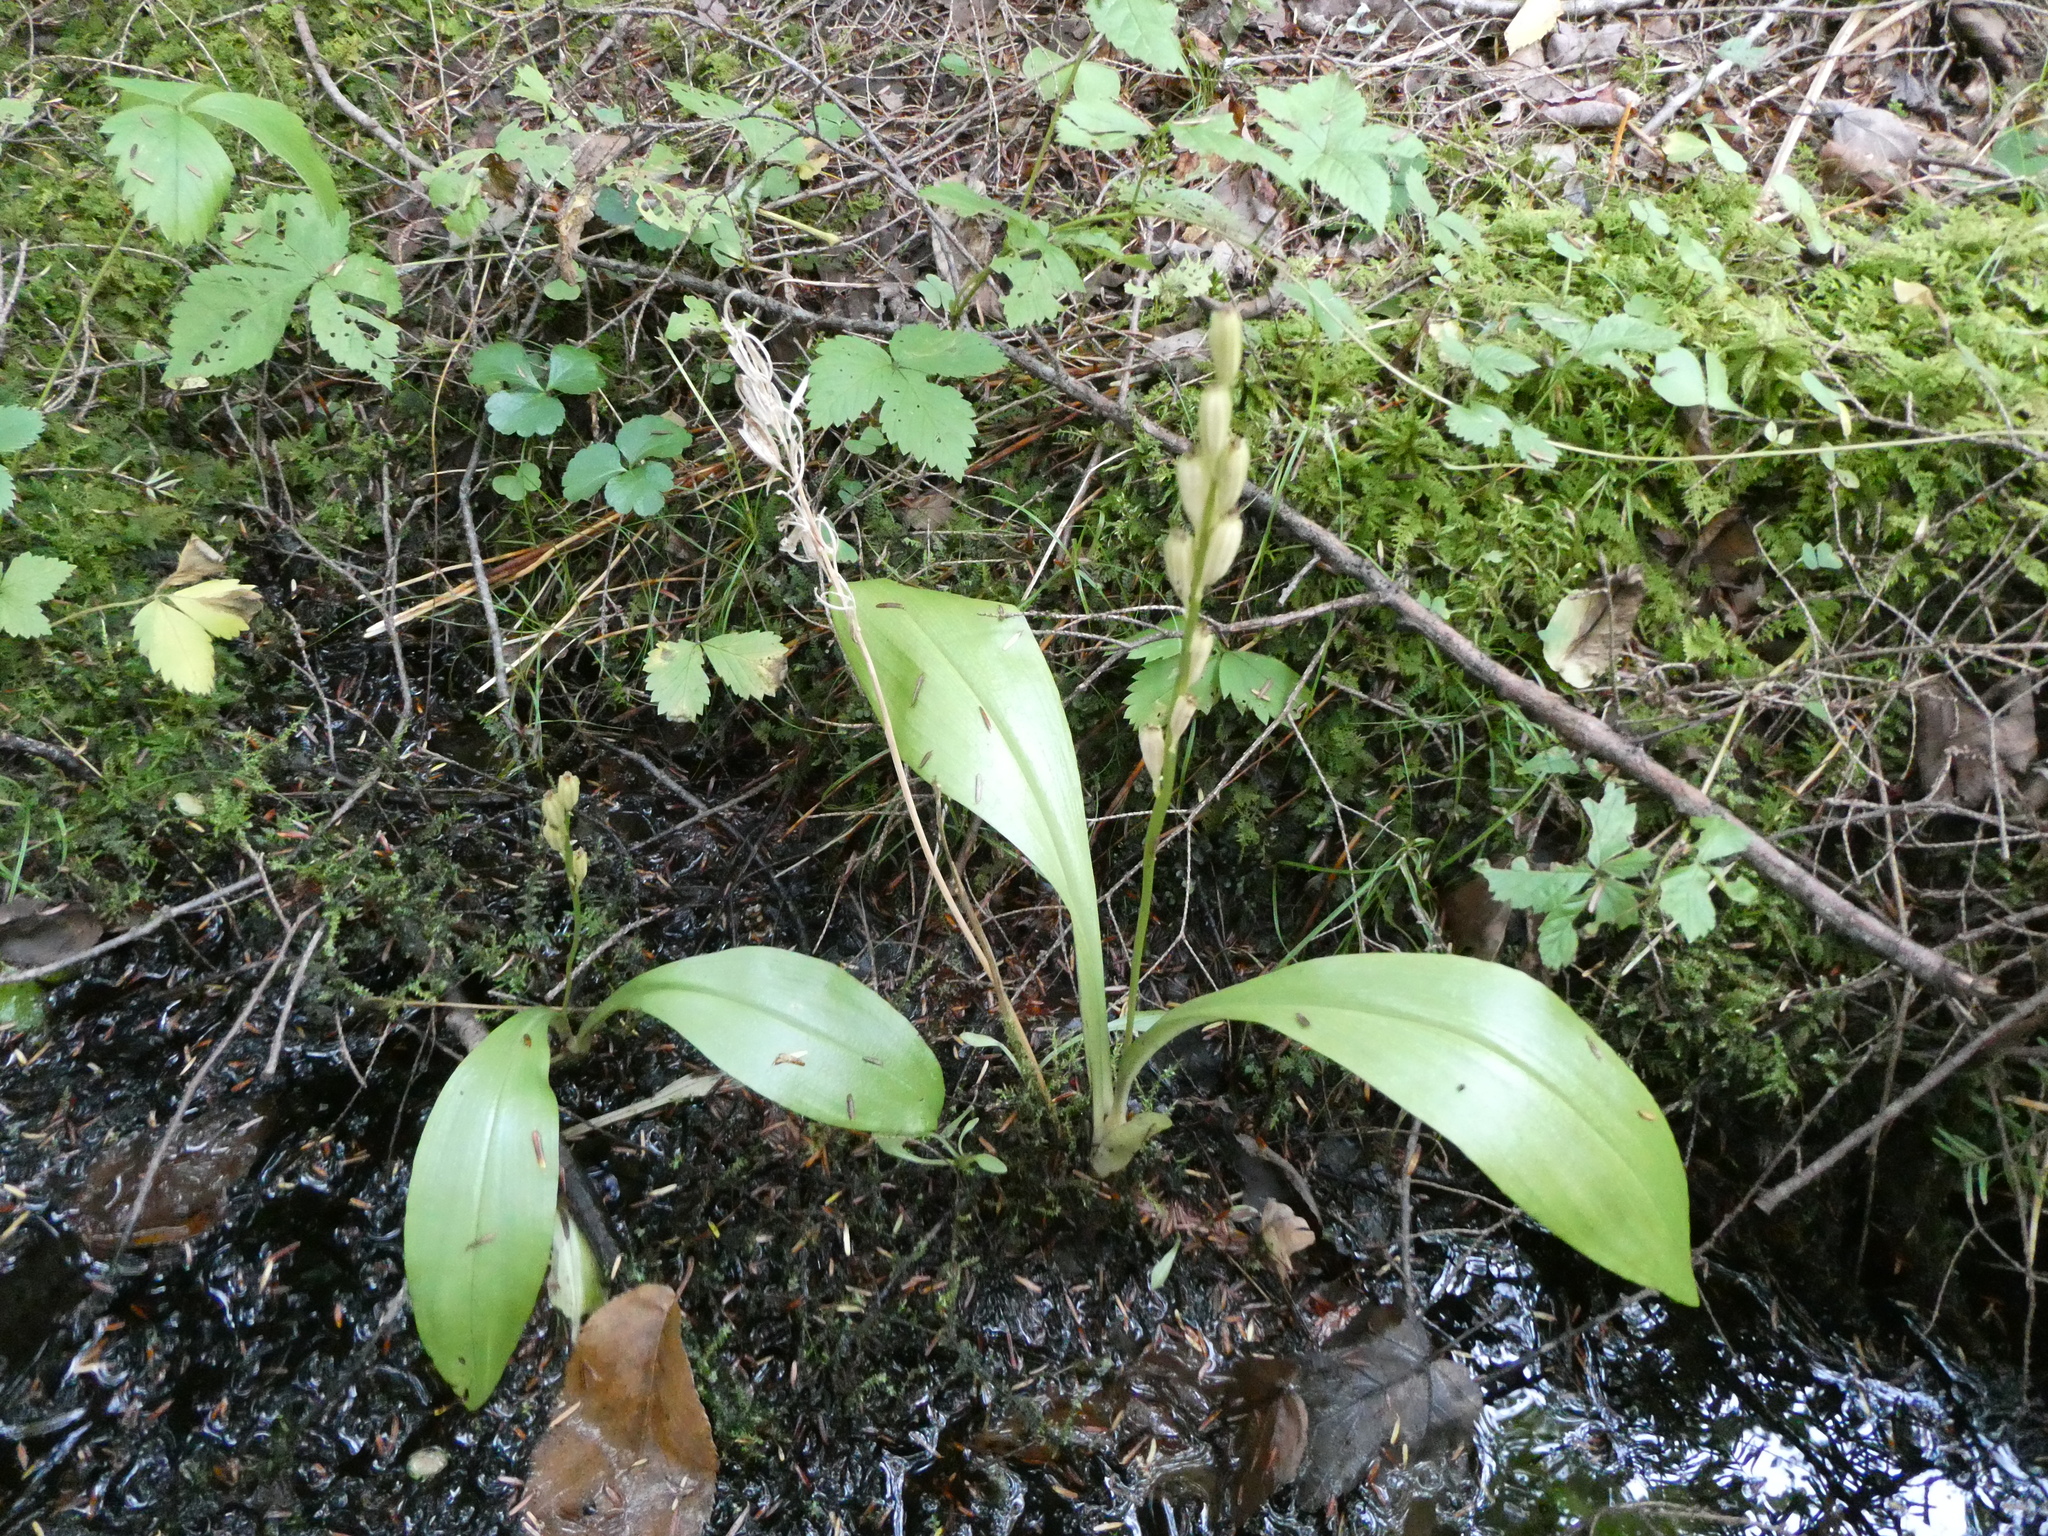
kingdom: Animalia
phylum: Arthropoda
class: Insecta
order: Coleoptera
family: Curculionidae
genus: Liparis
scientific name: Liparis loeselii
